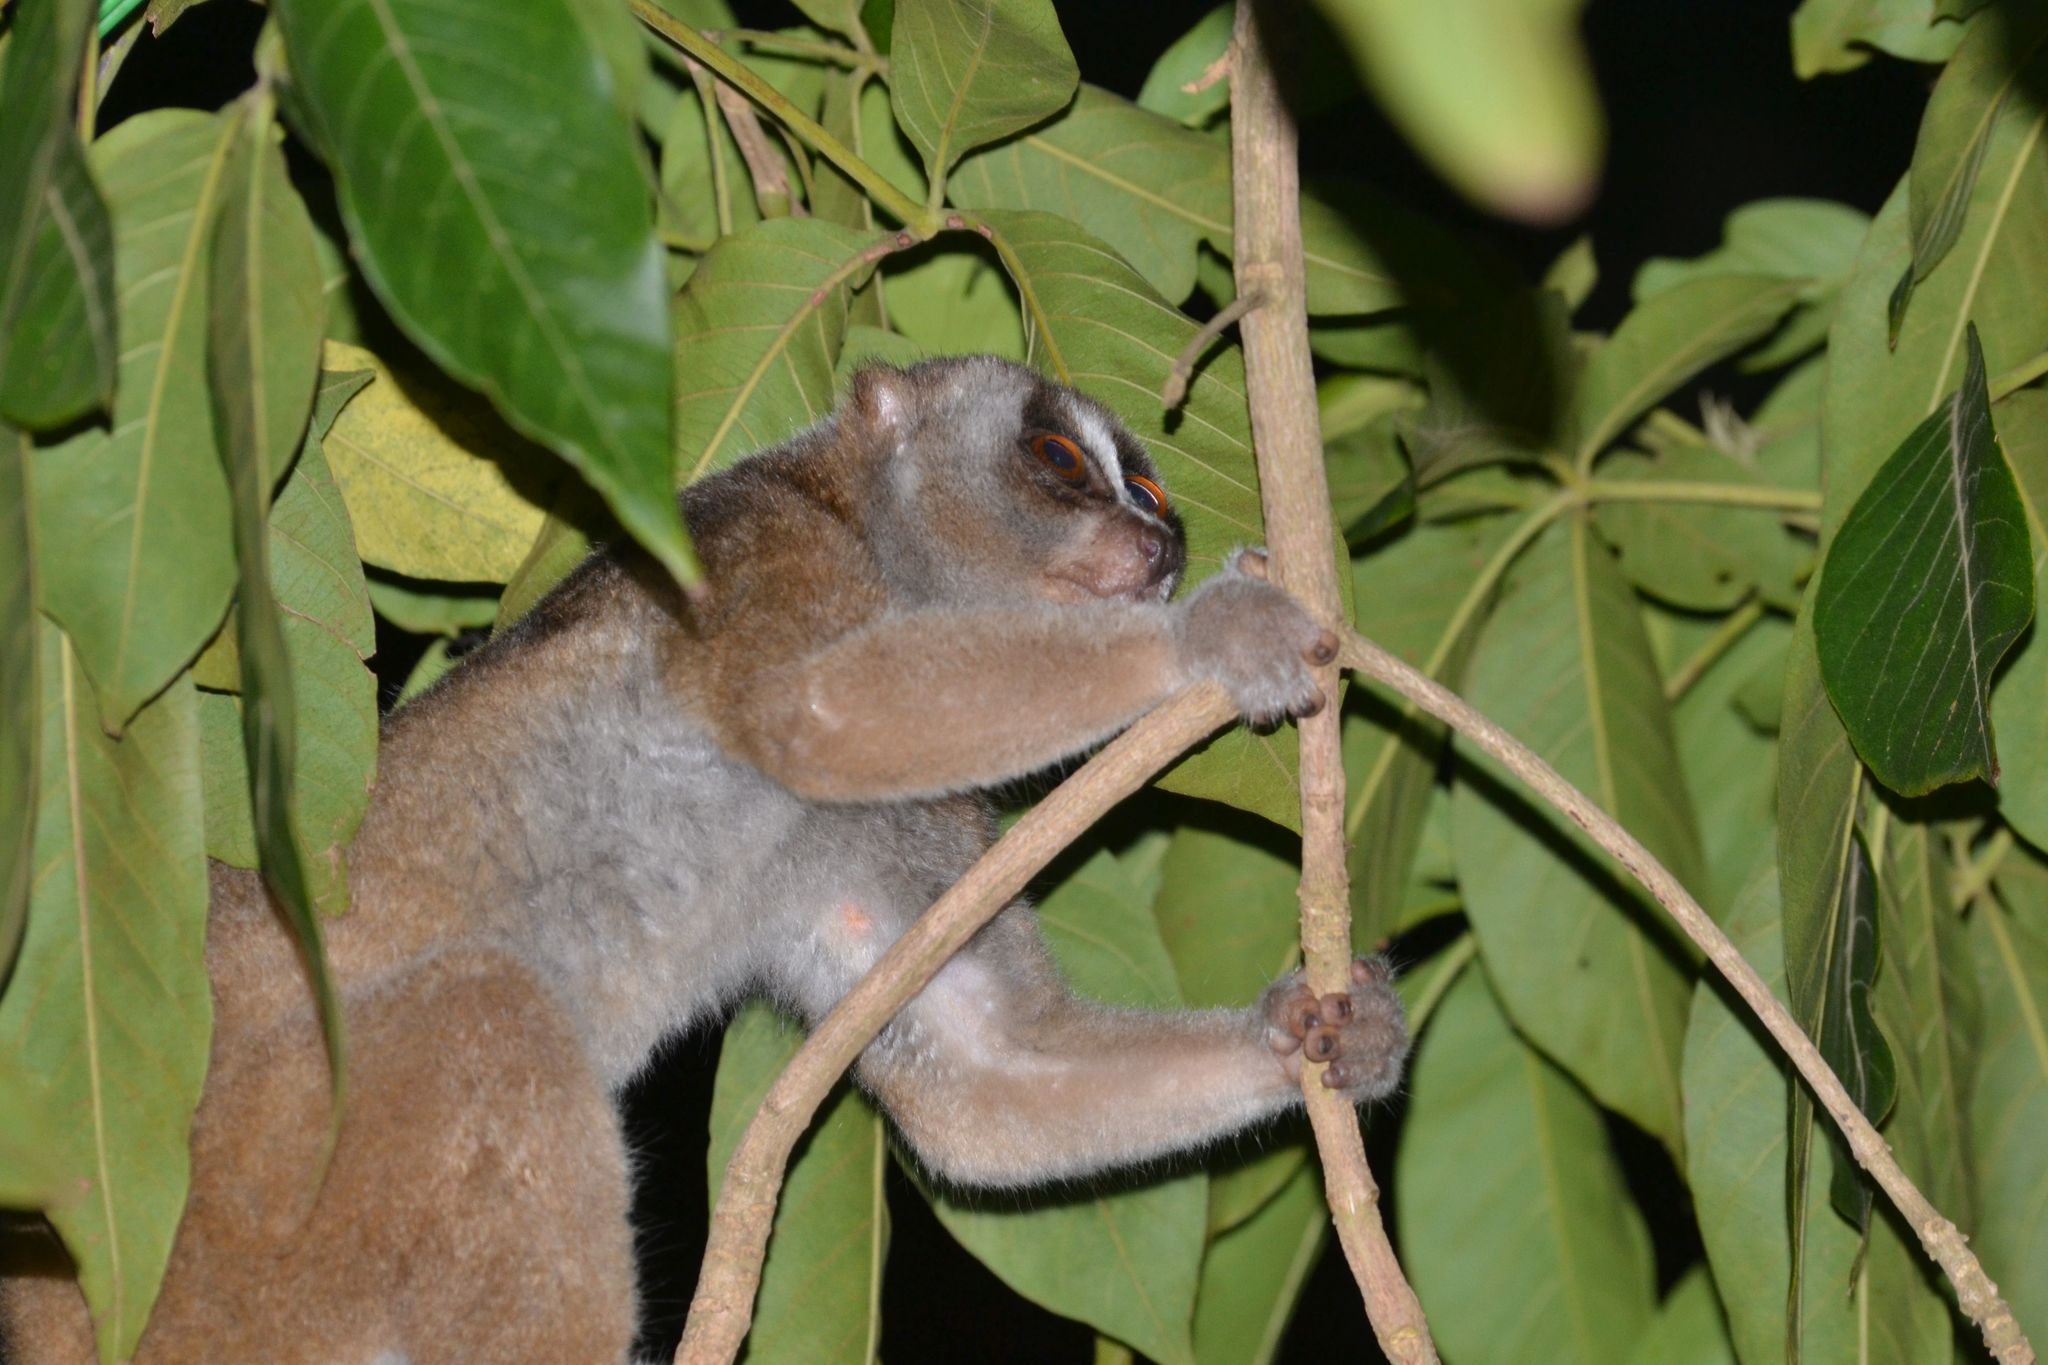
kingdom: Animalia
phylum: Chordata
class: Mammalia
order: Primates
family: Lorisidae
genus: Nycticebus
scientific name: Nycticebus coucang
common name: Sunda slow loris
